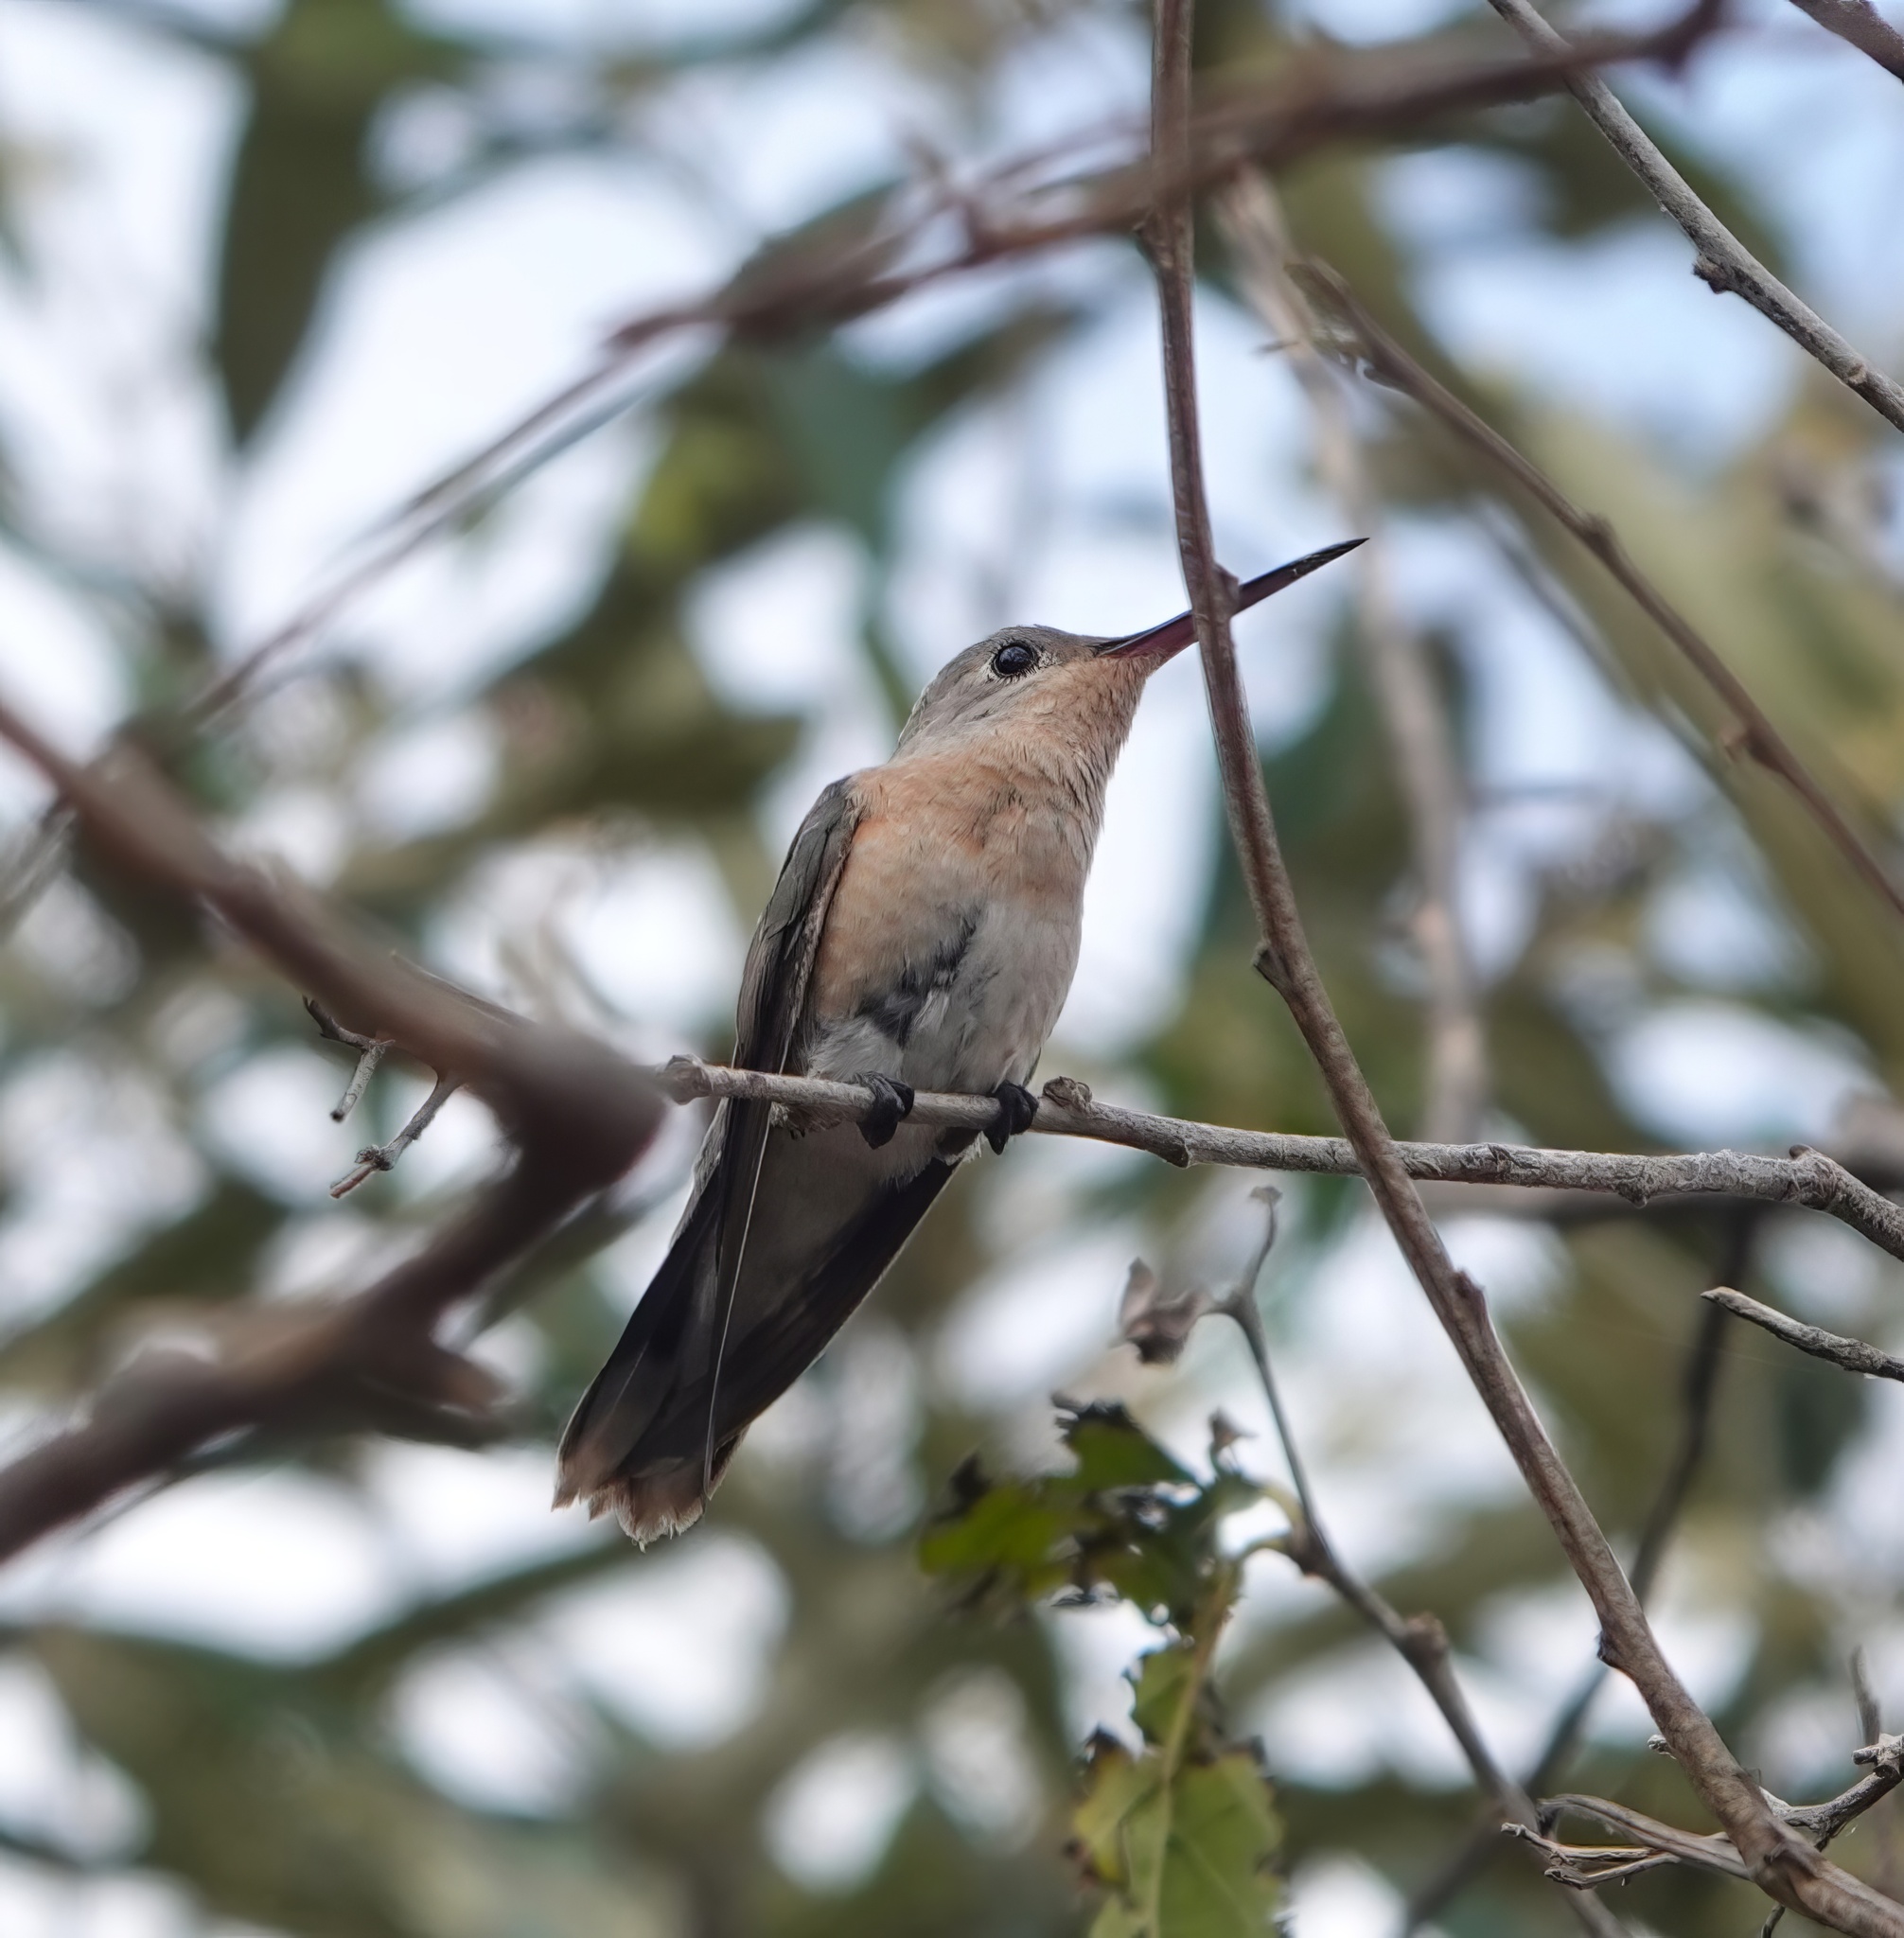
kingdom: Animalia
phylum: Chordata
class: Aves
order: Apodiformes
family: Trochilidae
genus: Leucippus
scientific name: Leucippus fallax
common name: Buffy hummingbird
